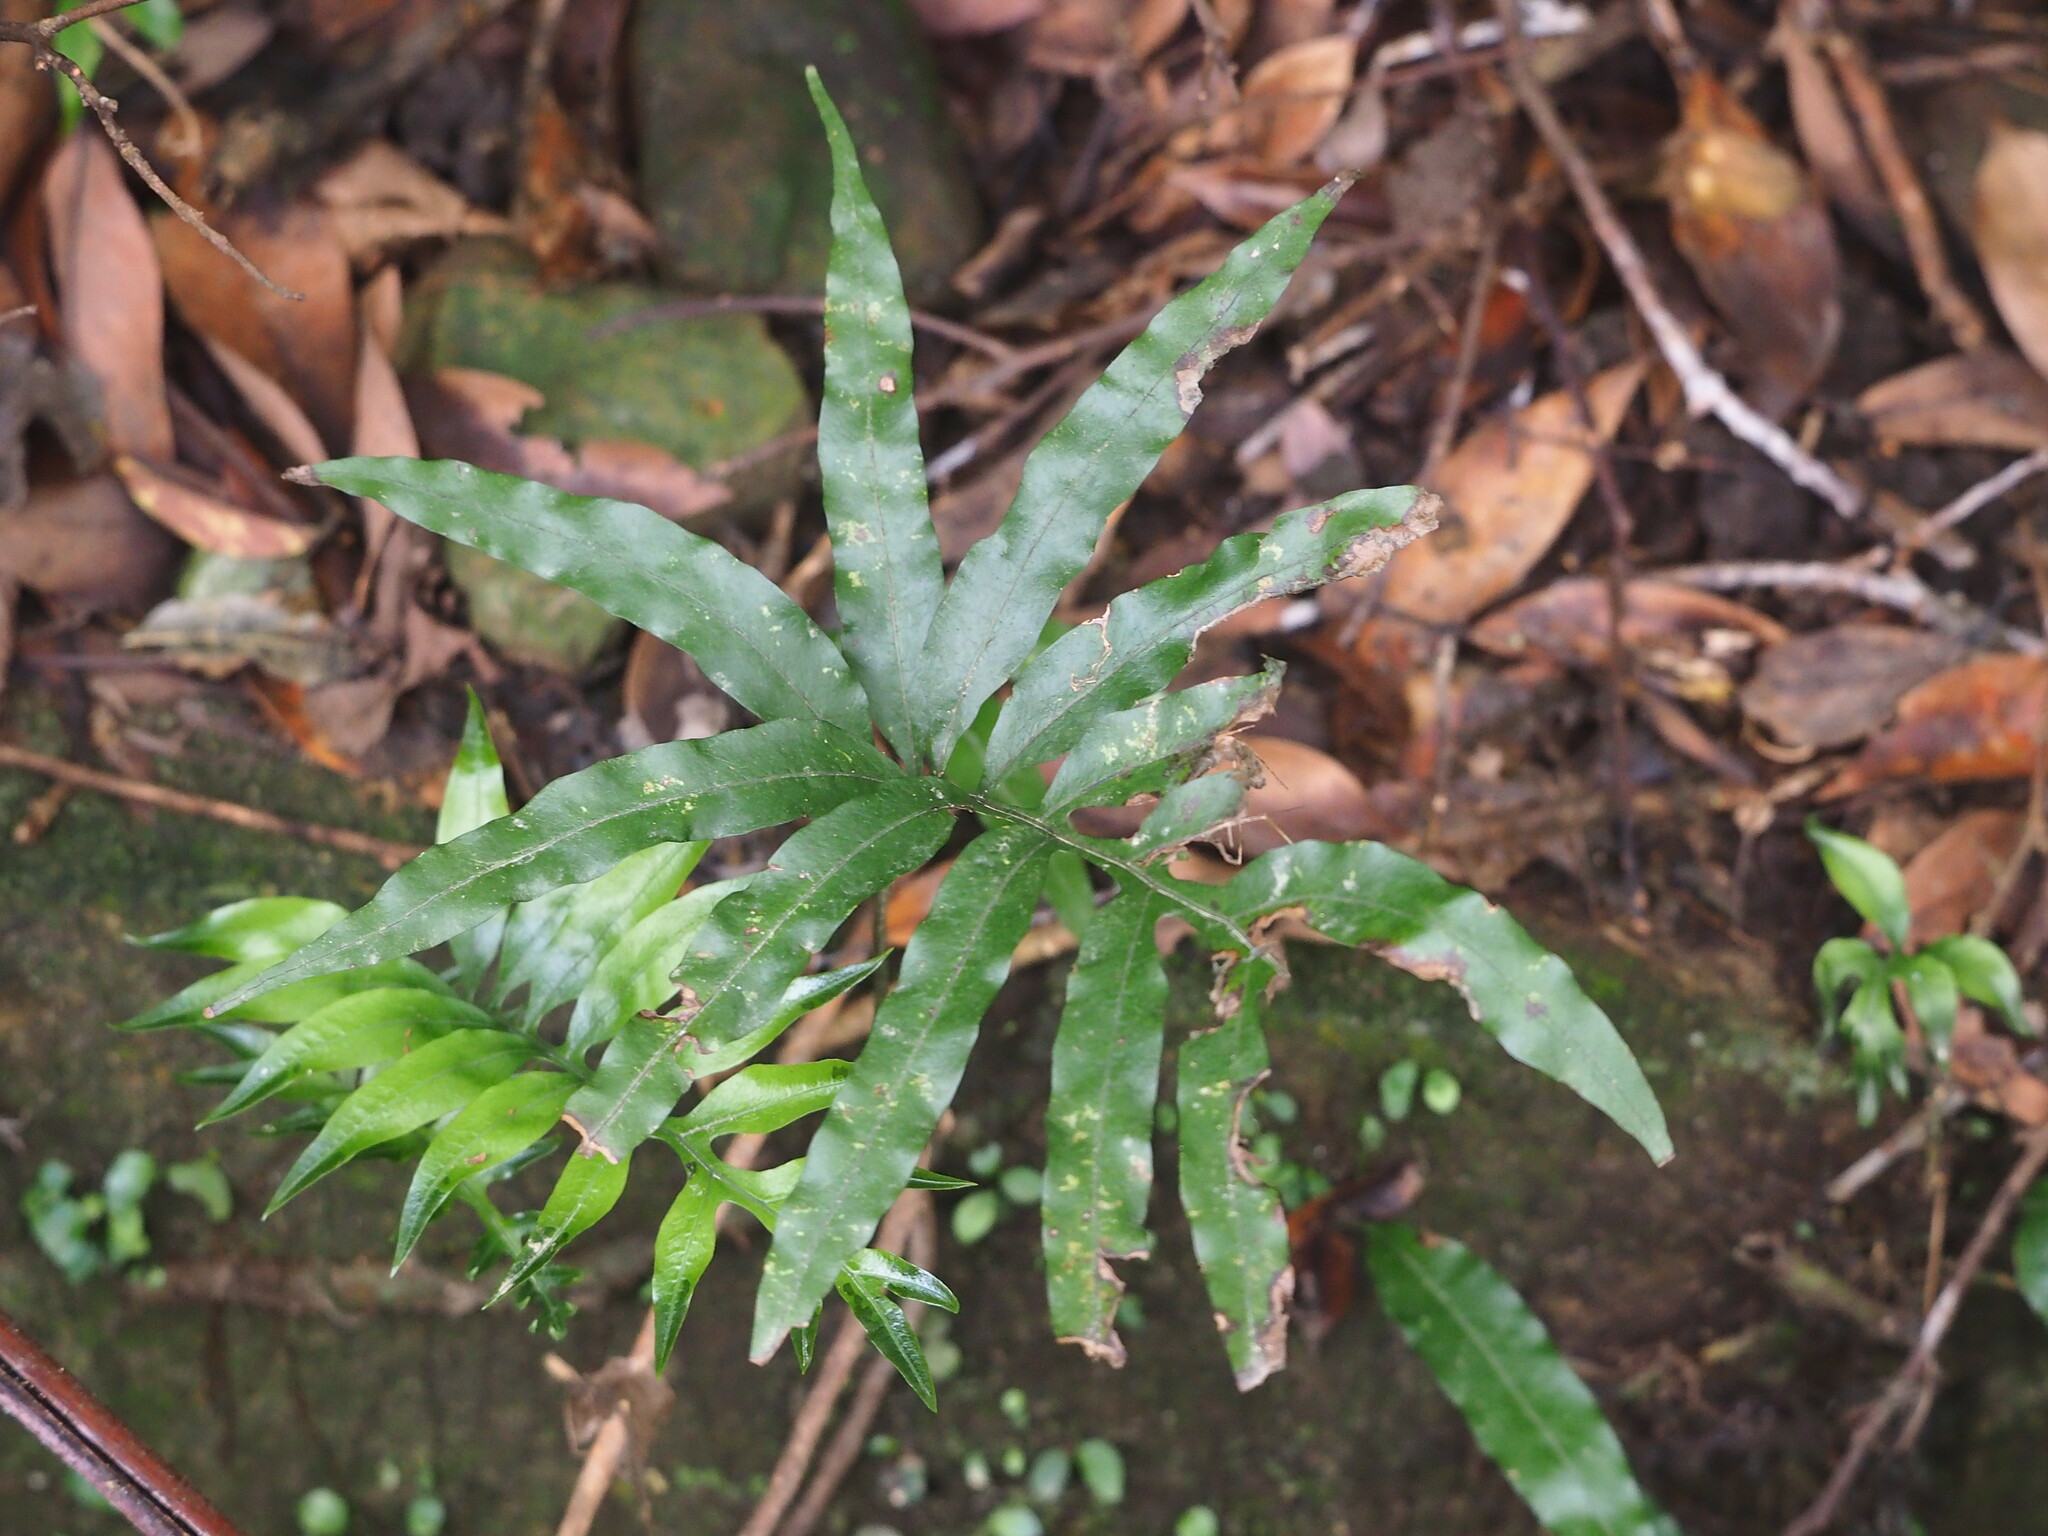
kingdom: Plantae
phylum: Tracheophyta
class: Polypodiopsida
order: Polypodiales
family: Polypodiaceae
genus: Leptochilus
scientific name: Leptochilus ellipticus
